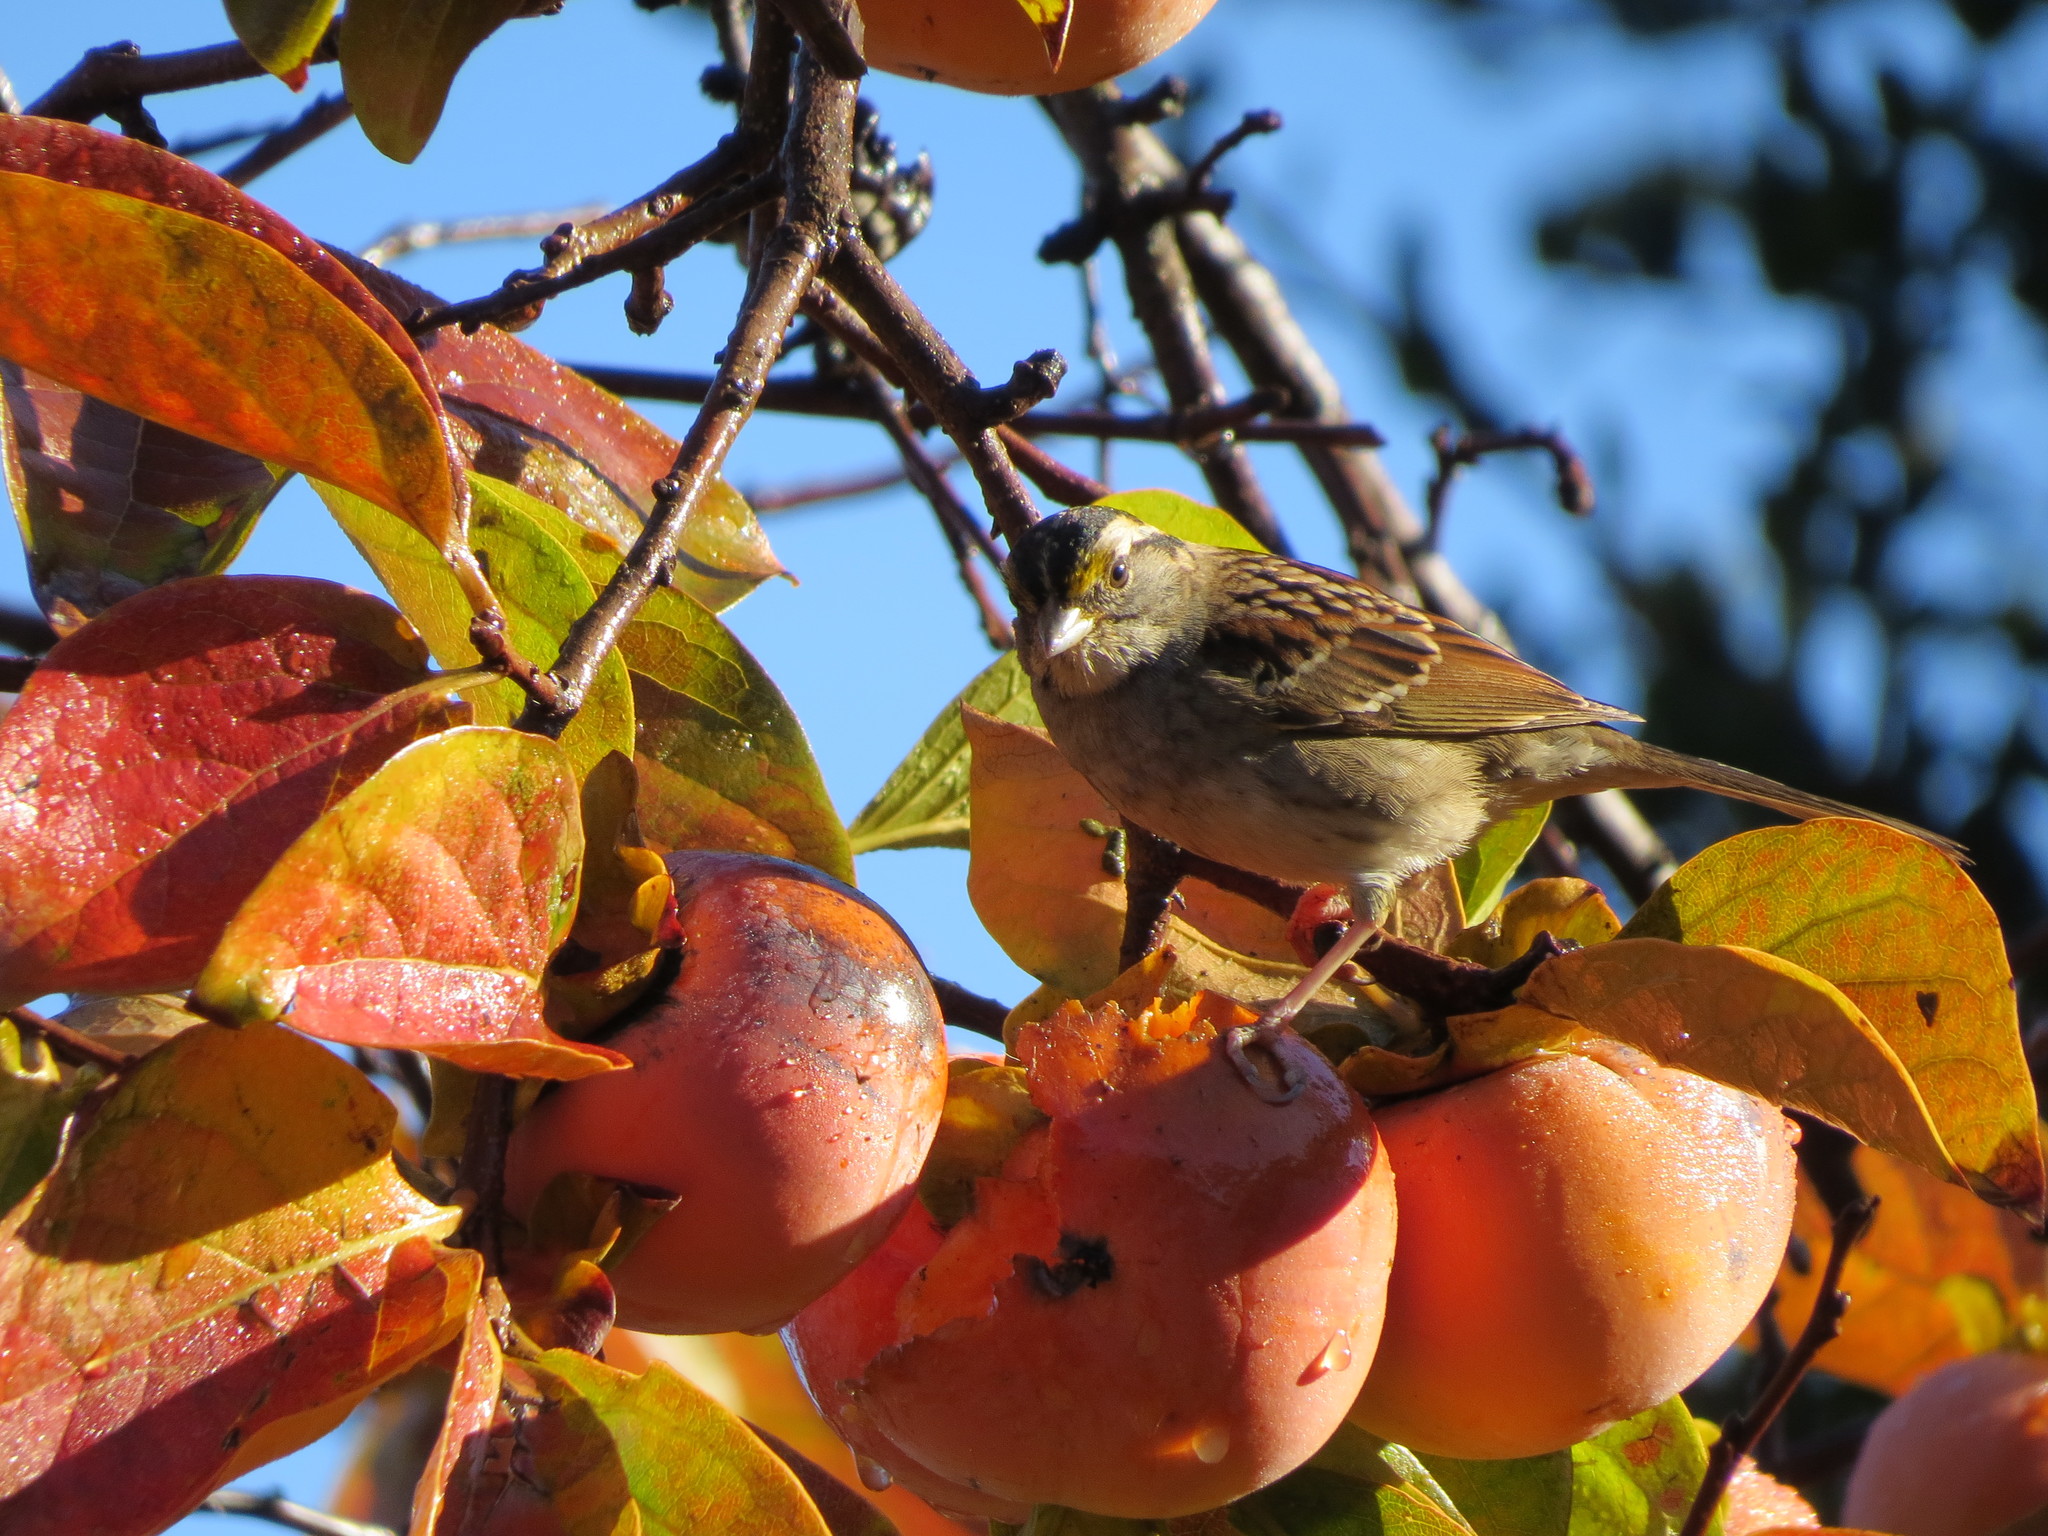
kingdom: Animalia
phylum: Chordata
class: Aves
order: Passeriformes
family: Passerellidae
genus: Zonotrichia
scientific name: Zonotrichia albicollis
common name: White-throated sparrow
